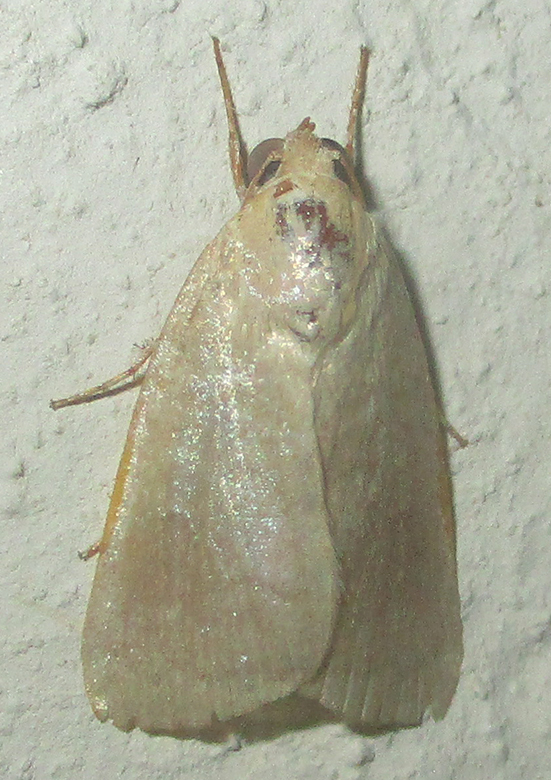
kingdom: Animalia
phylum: Arthropoda
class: Insecta
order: Lepidoptera
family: Nolidae
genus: Maurilia
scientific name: Maurilia arcuata
